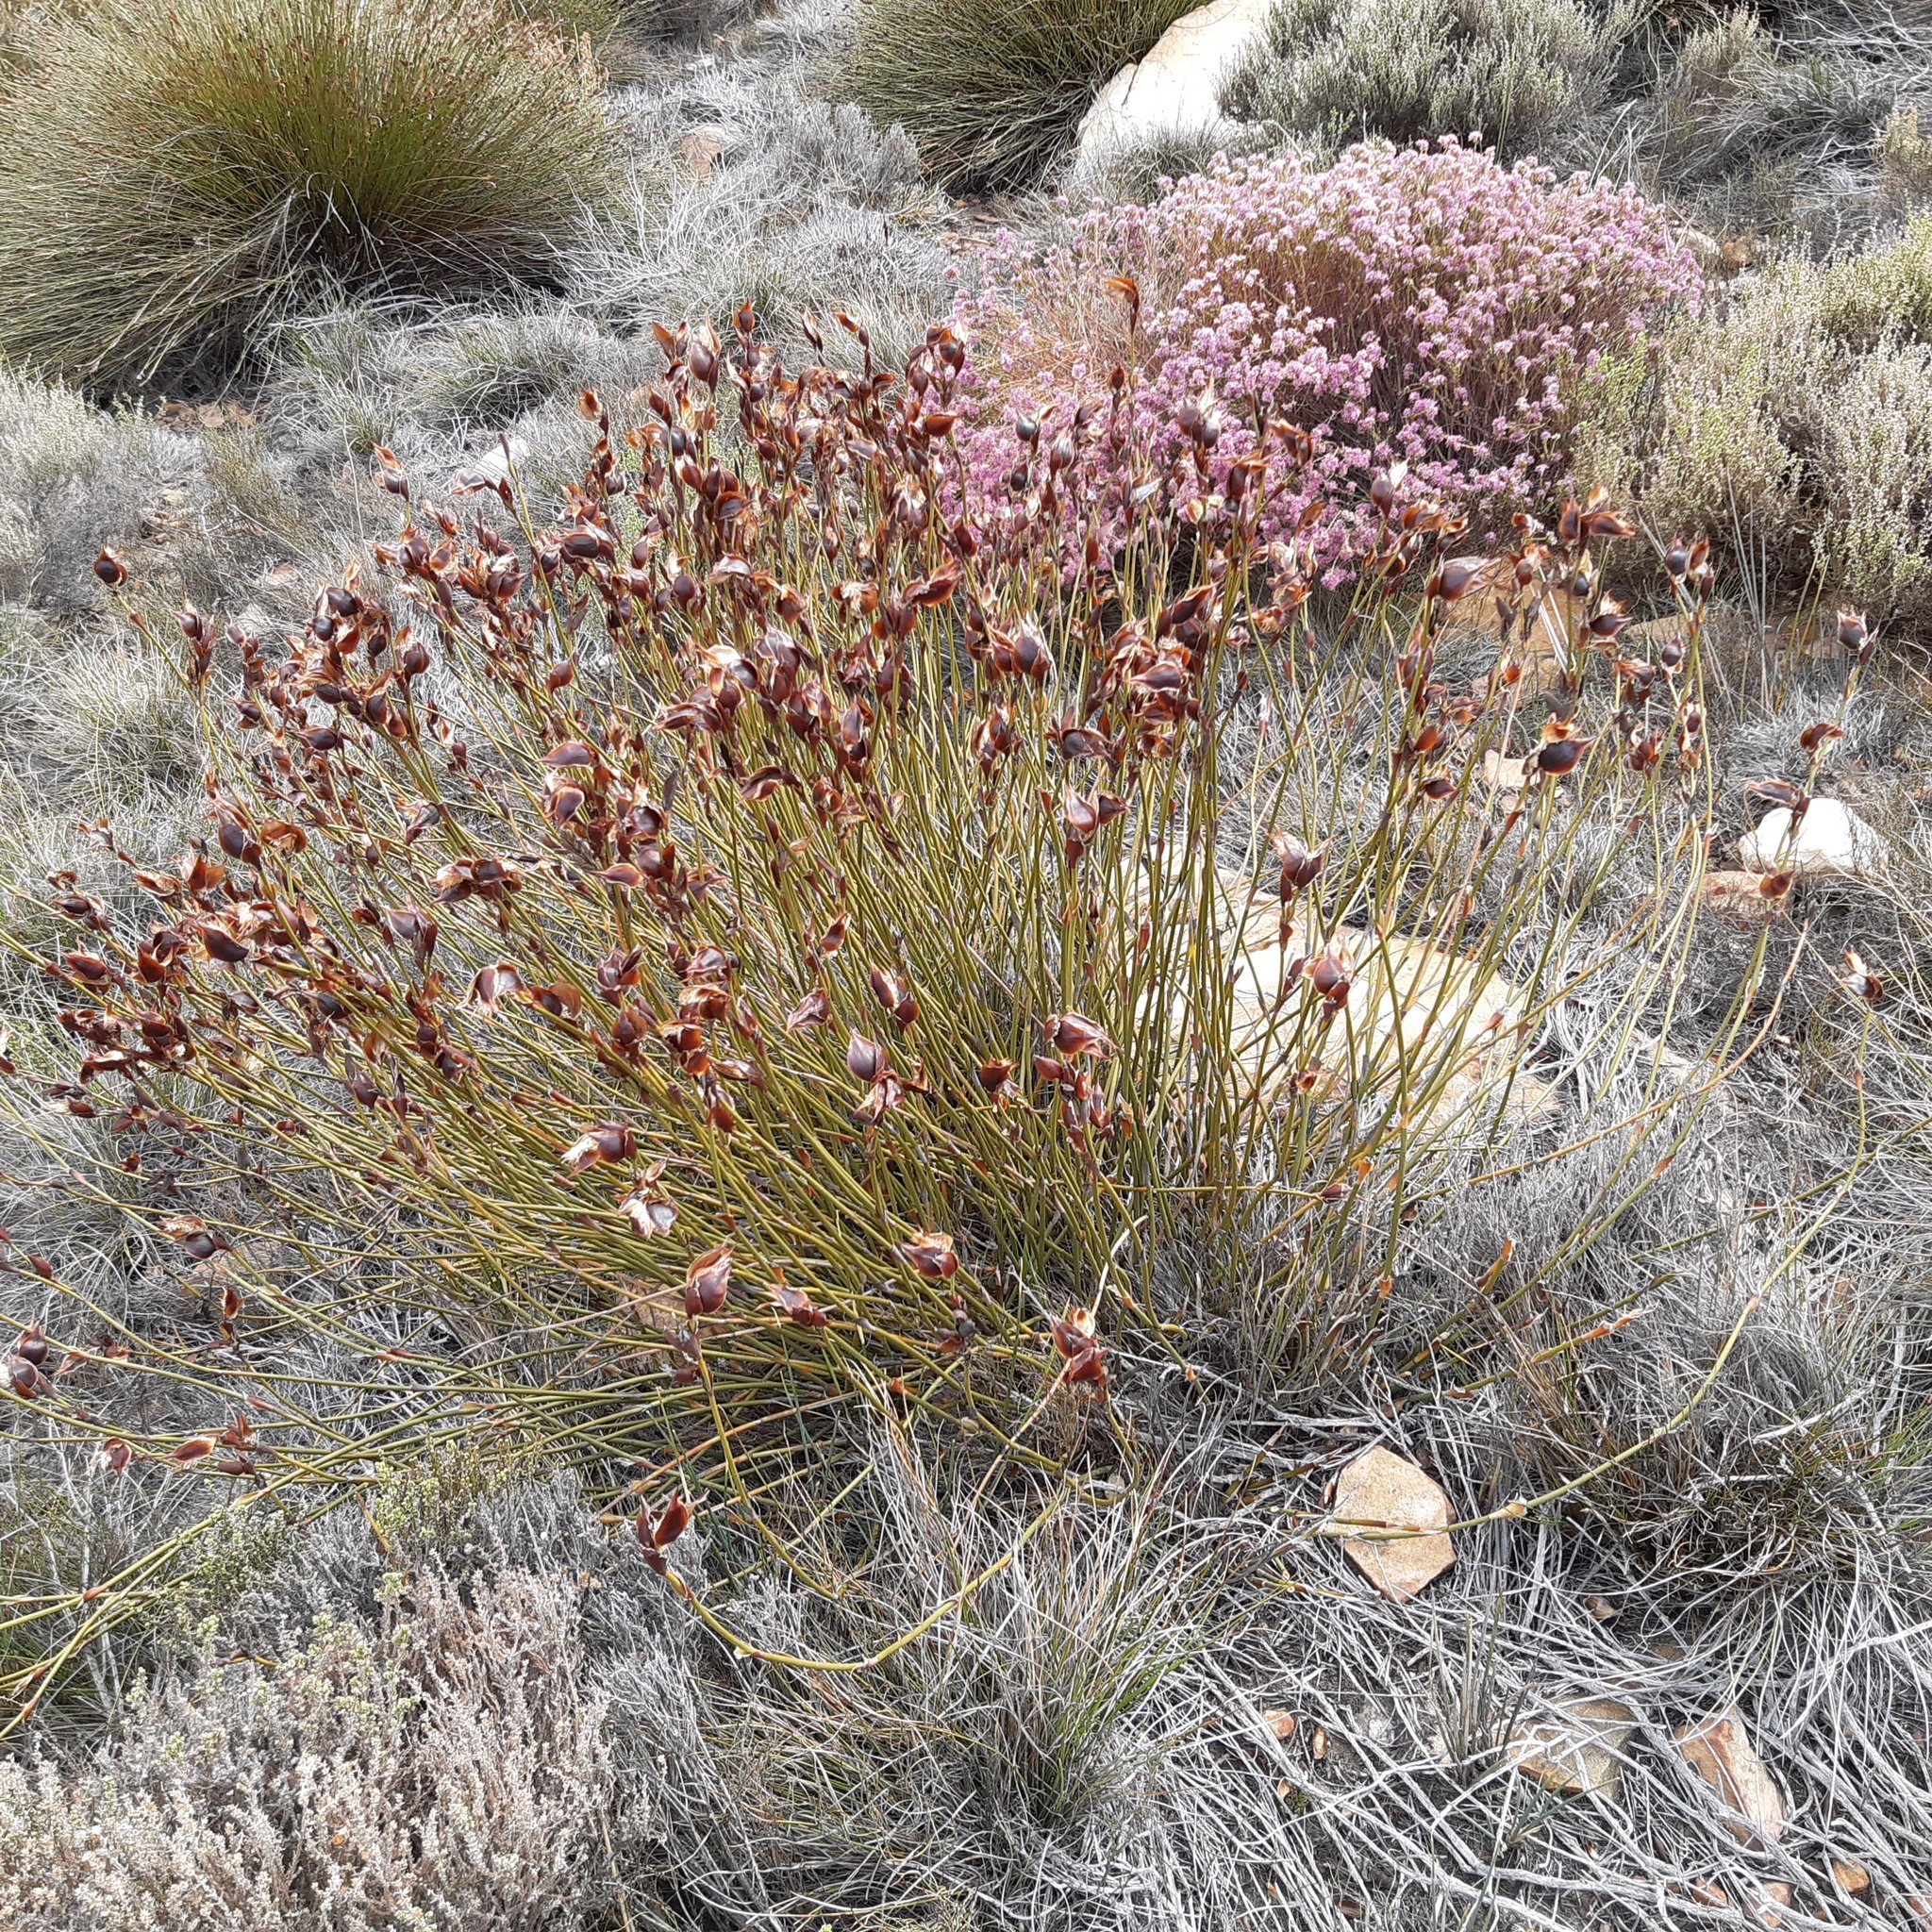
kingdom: Plantae
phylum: Tracheophyta
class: Liliopsida
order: Poales
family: Restionaceae
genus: Willdenowia
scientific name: Willdenowia stokoei
